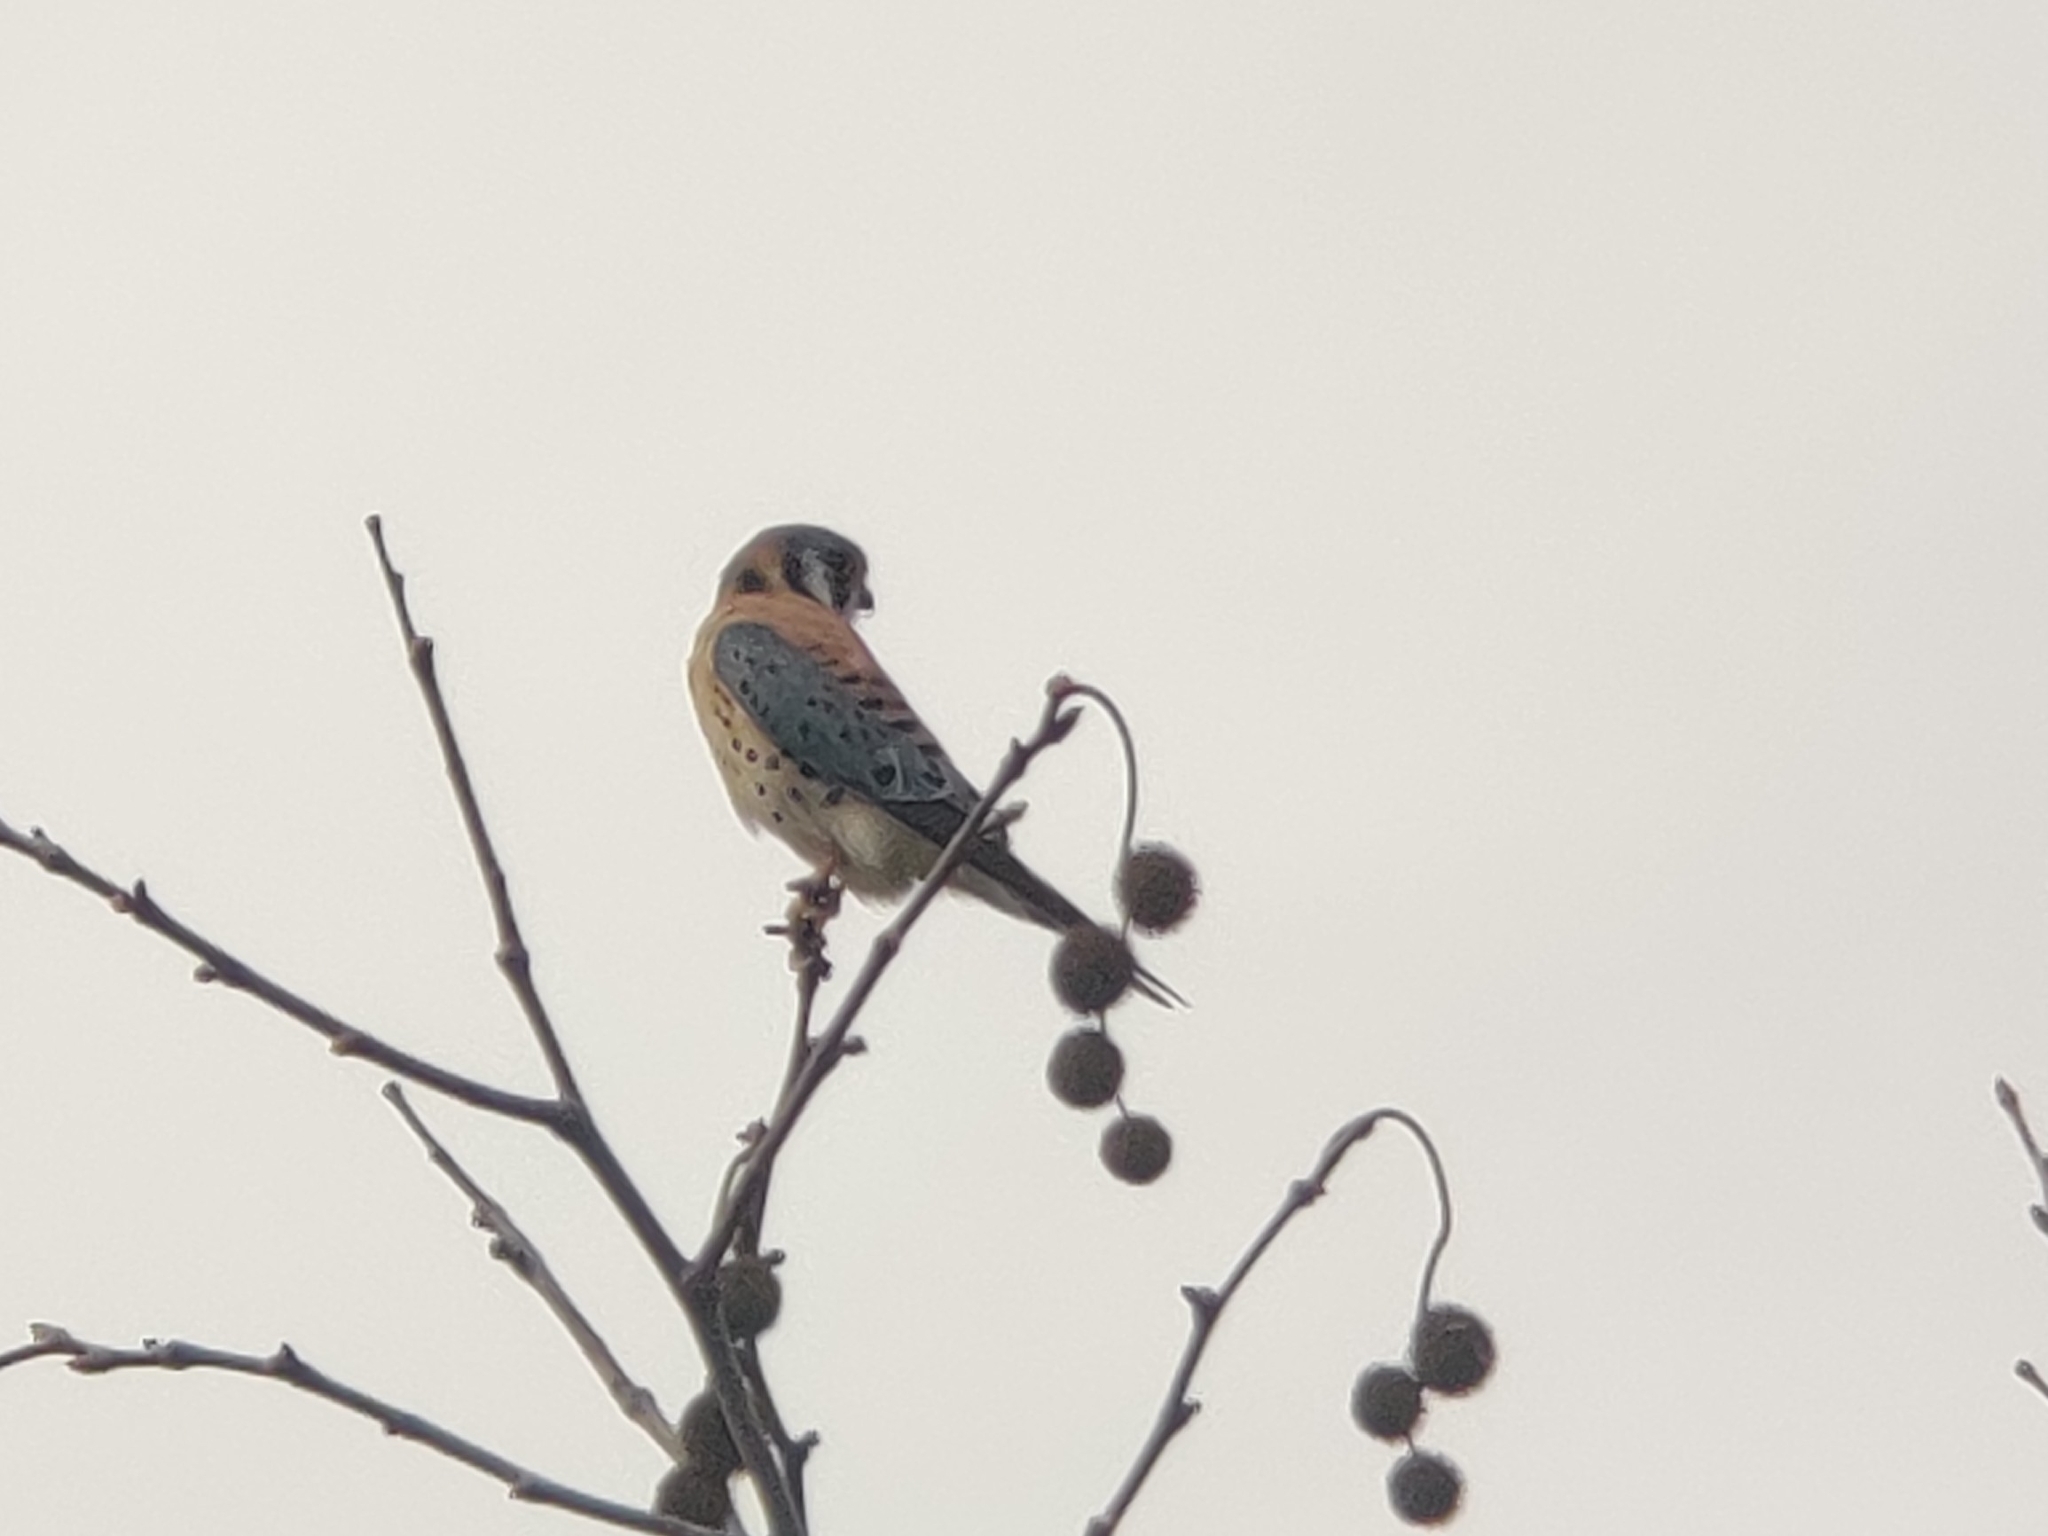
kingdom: Animalia
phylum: Chordata
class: Aves
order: Falconiformes
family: Falconidae
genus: Falco
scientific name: Falco sparverius
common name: American kestrel
